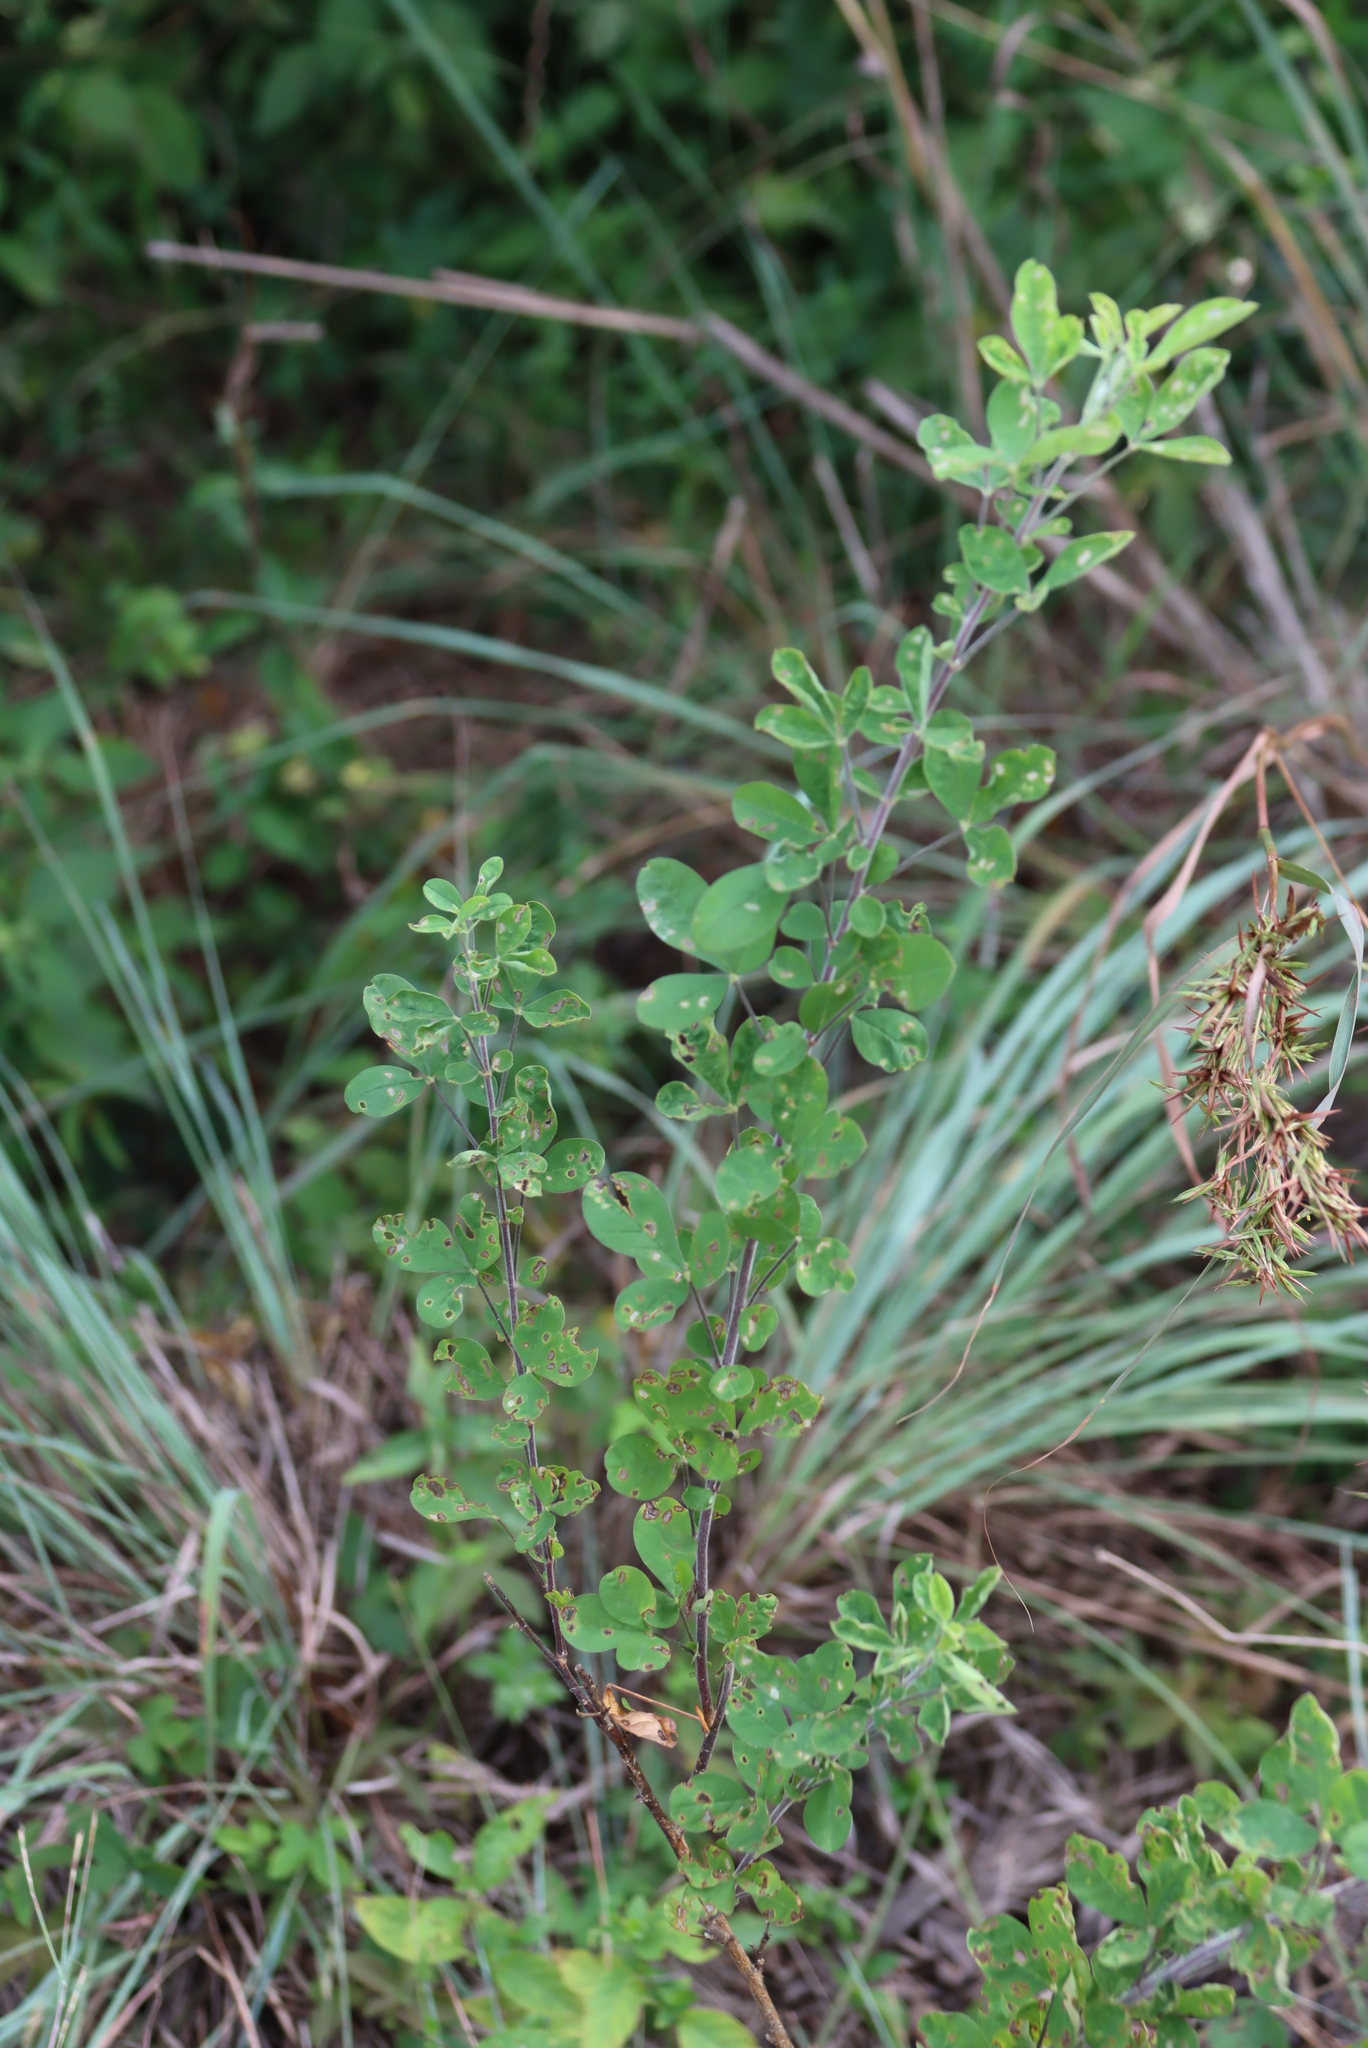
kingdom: Plantae
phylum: Tracheophyta
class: Magnoliopsida
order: Fabales
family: Fabaceae
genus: Crotalaria
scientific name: Crotalaria monteiroi
